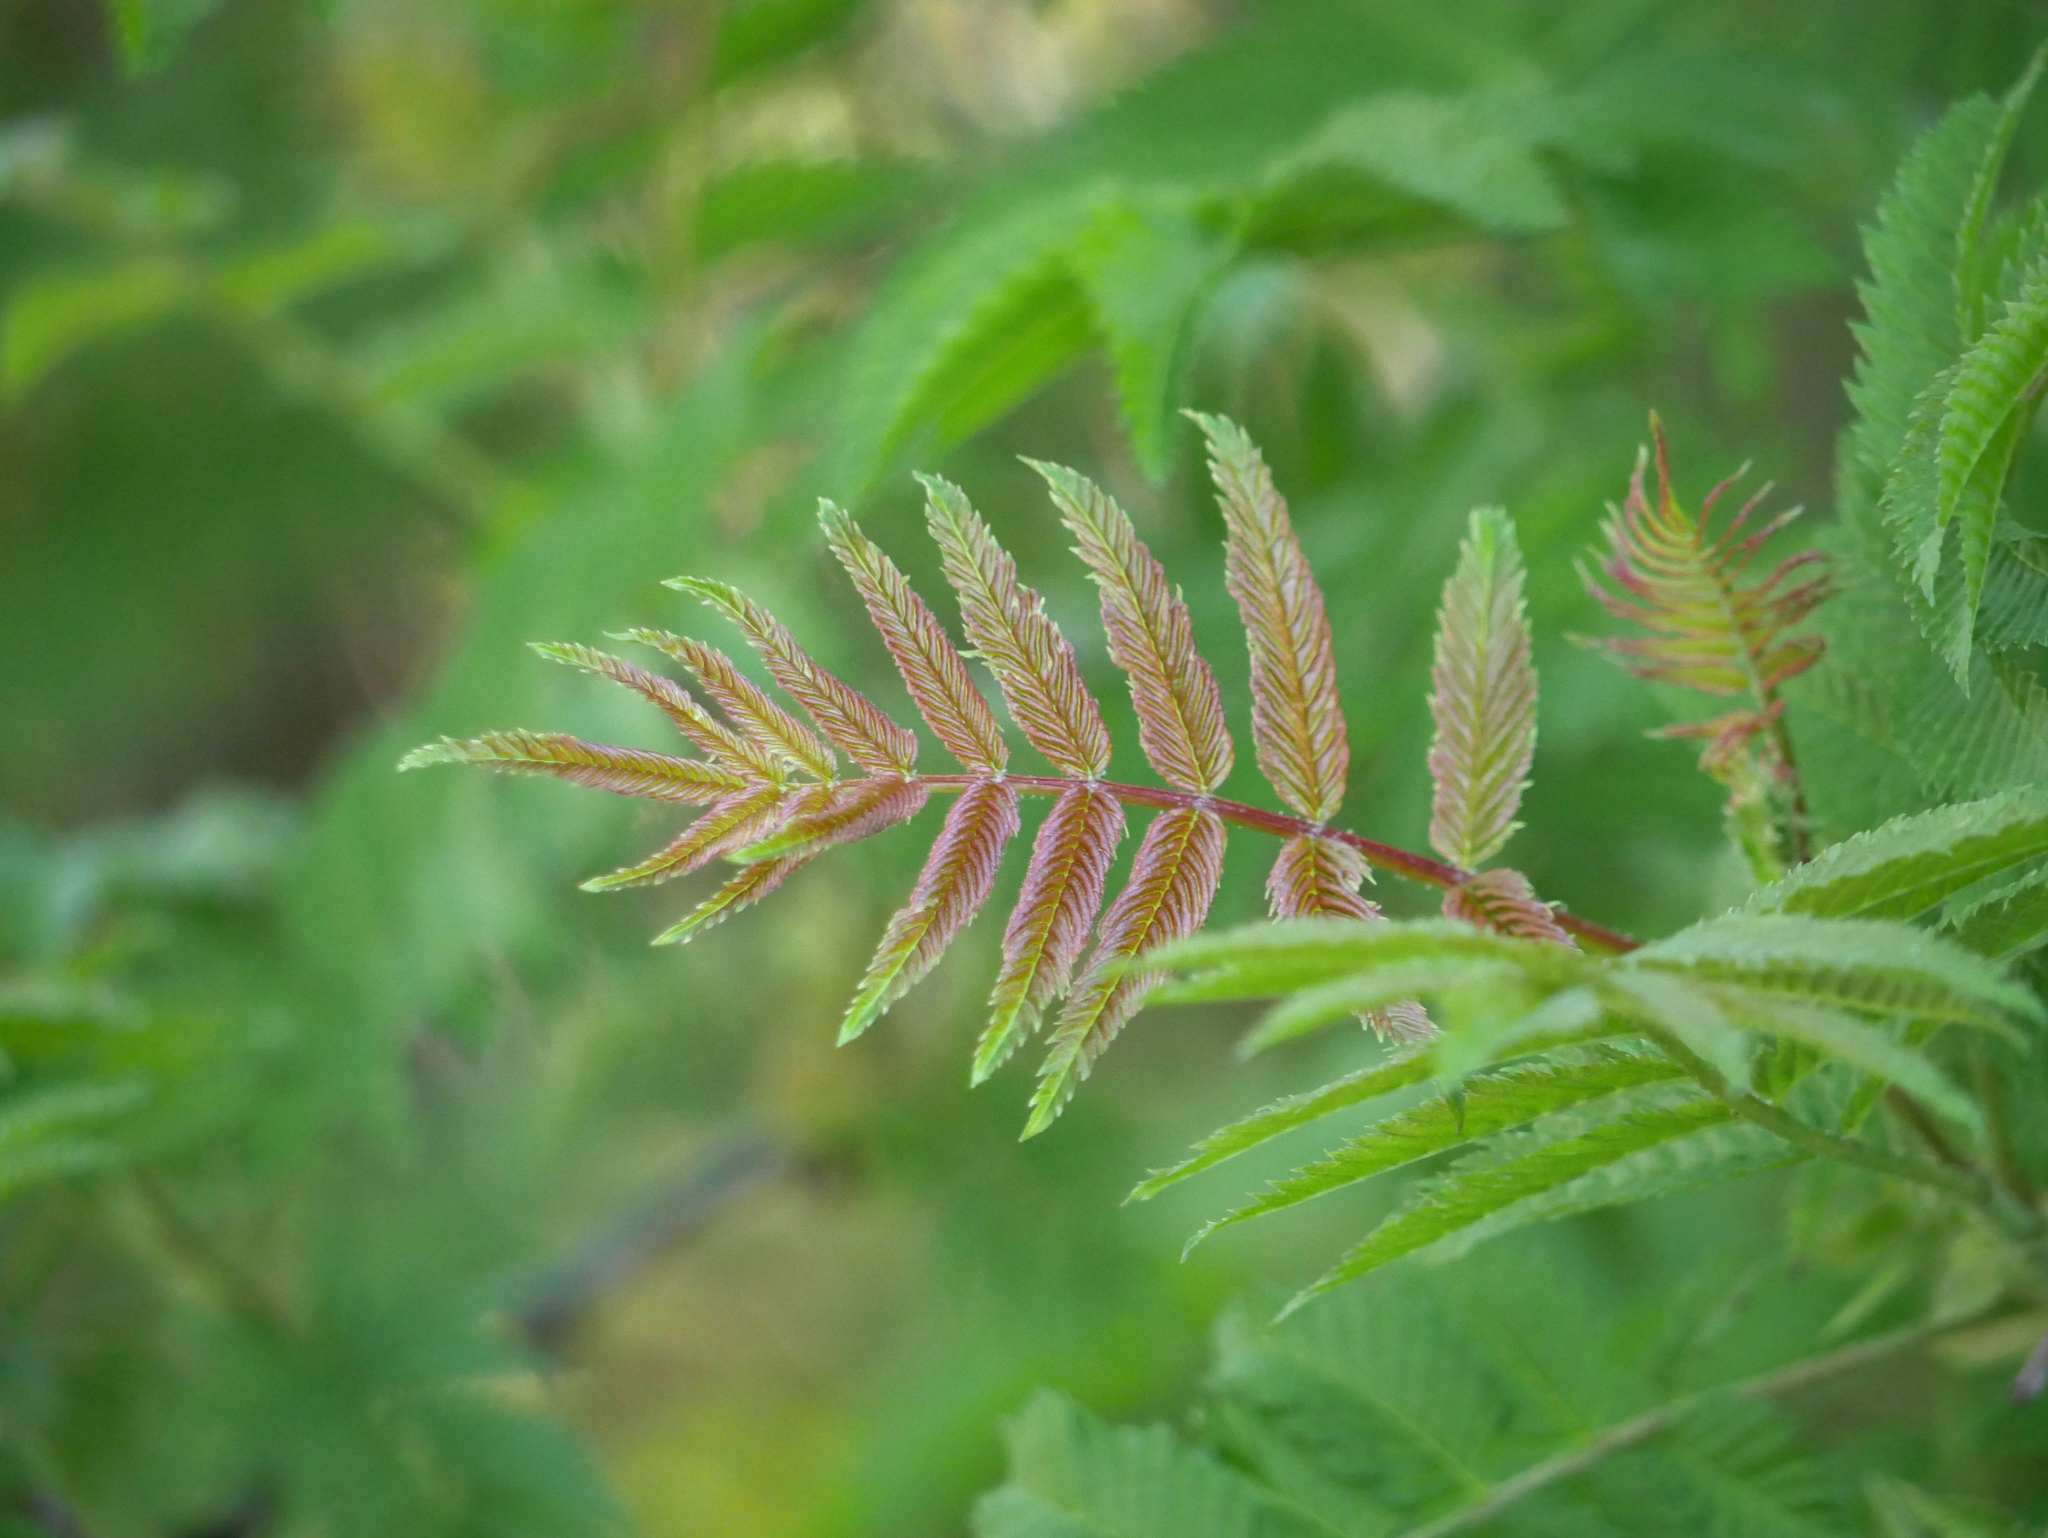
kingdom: Plantae
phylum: Tracheophyta
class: Magnoliopsida
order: Sapindales
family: Anacardiaceae
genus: Rhus
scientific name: Rhus typhina
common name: Staghorn sumac
